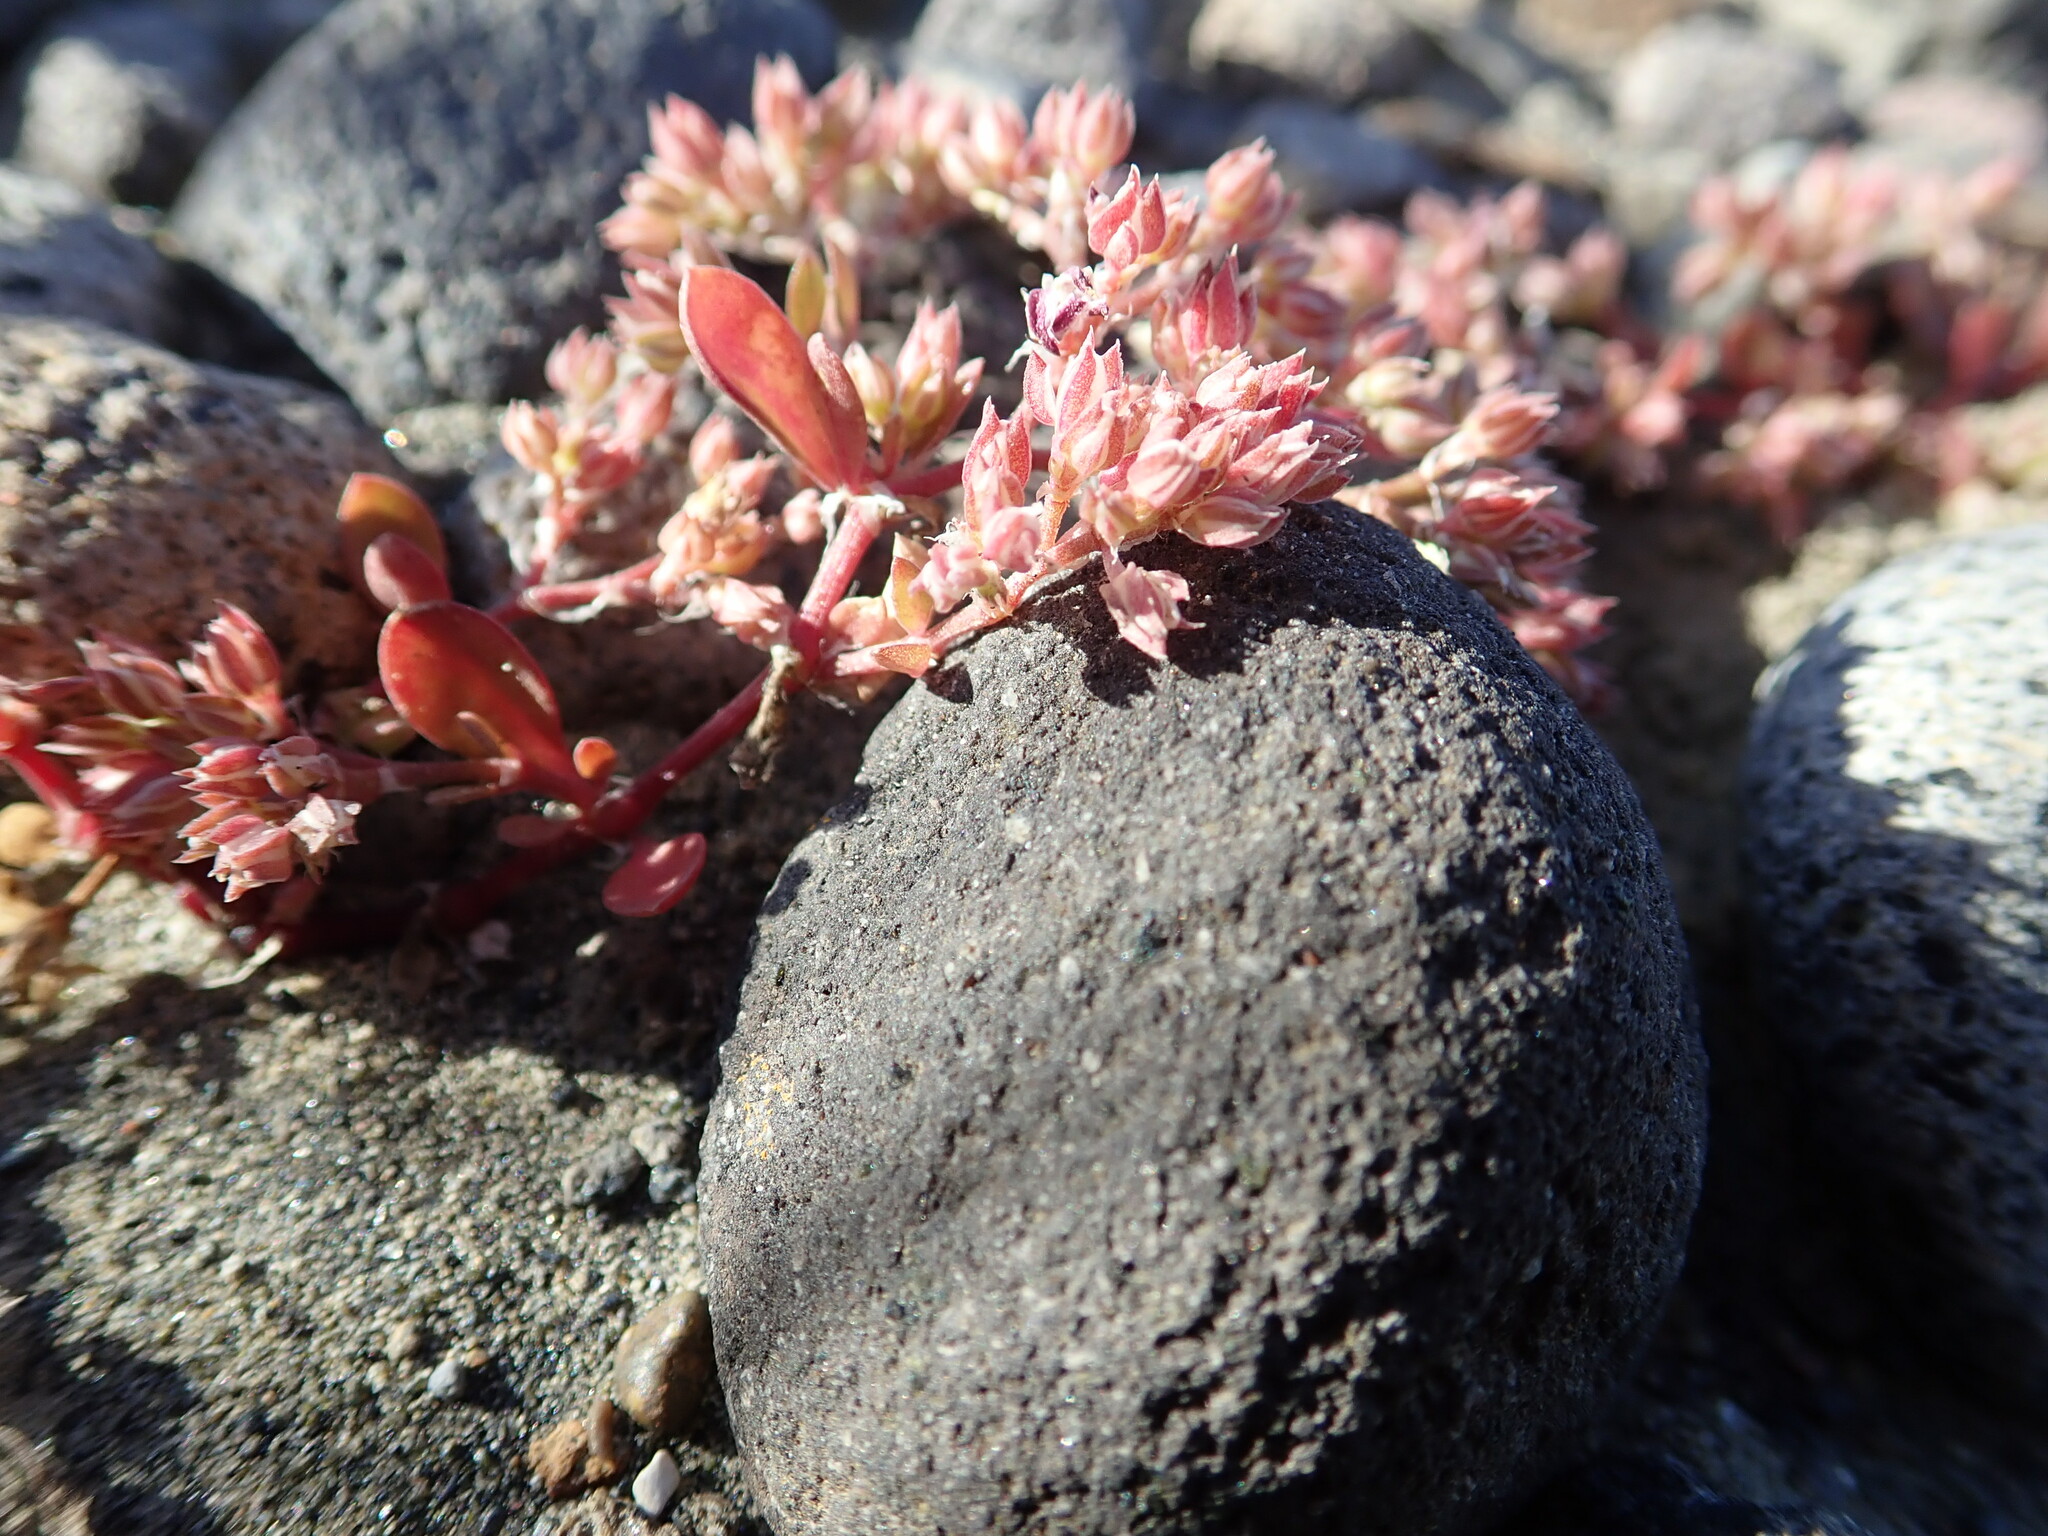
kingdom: Plantae
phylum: Tracheophyta
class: Magnoliopsida
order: Caryophyllales
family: Caryophyllaceae
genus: Polycarpon
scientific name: Polycarpon tetraphyllum
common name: Four-leaved all-seed
